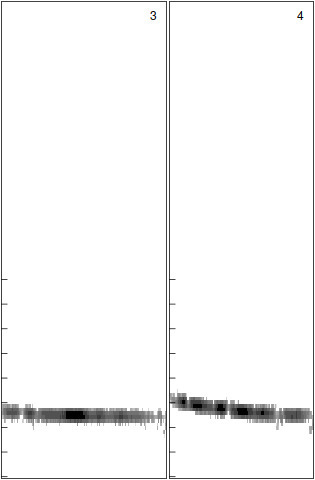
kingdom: Animalia
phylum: Chordata
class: Mammalia
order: Chiroptera
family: Vespertilionidae
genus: Nyctalus
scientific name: Nyctalus leisleri
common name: Lesser noctule
